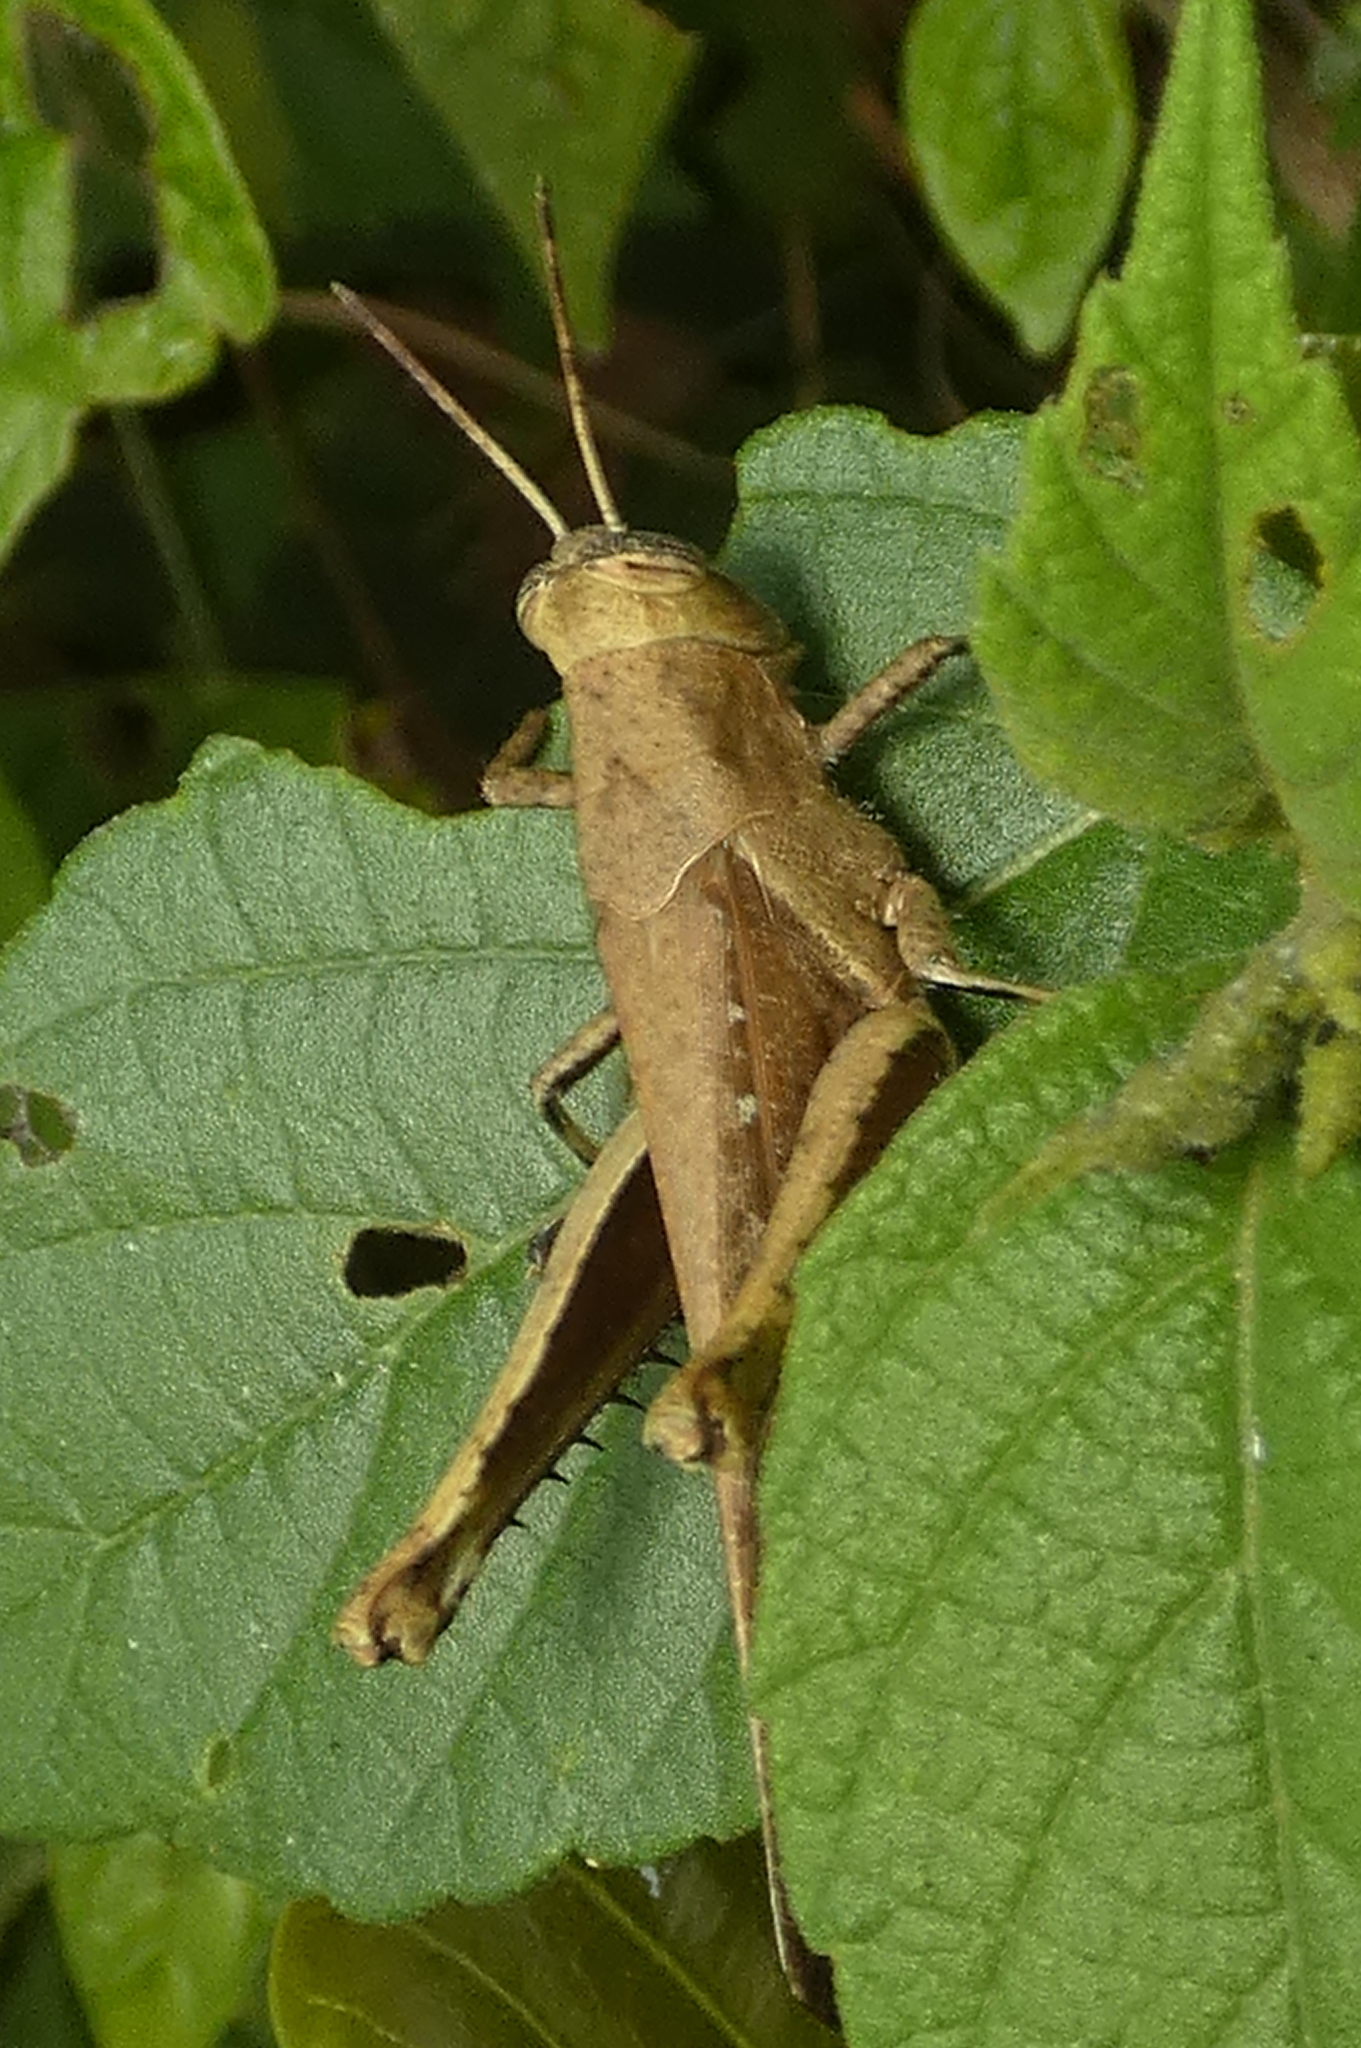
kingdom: Animalia
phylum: Arthropoda
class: Insecta
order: Orthoptera
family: Acrididae
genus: Abracris
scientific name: Abracris flavolineata
